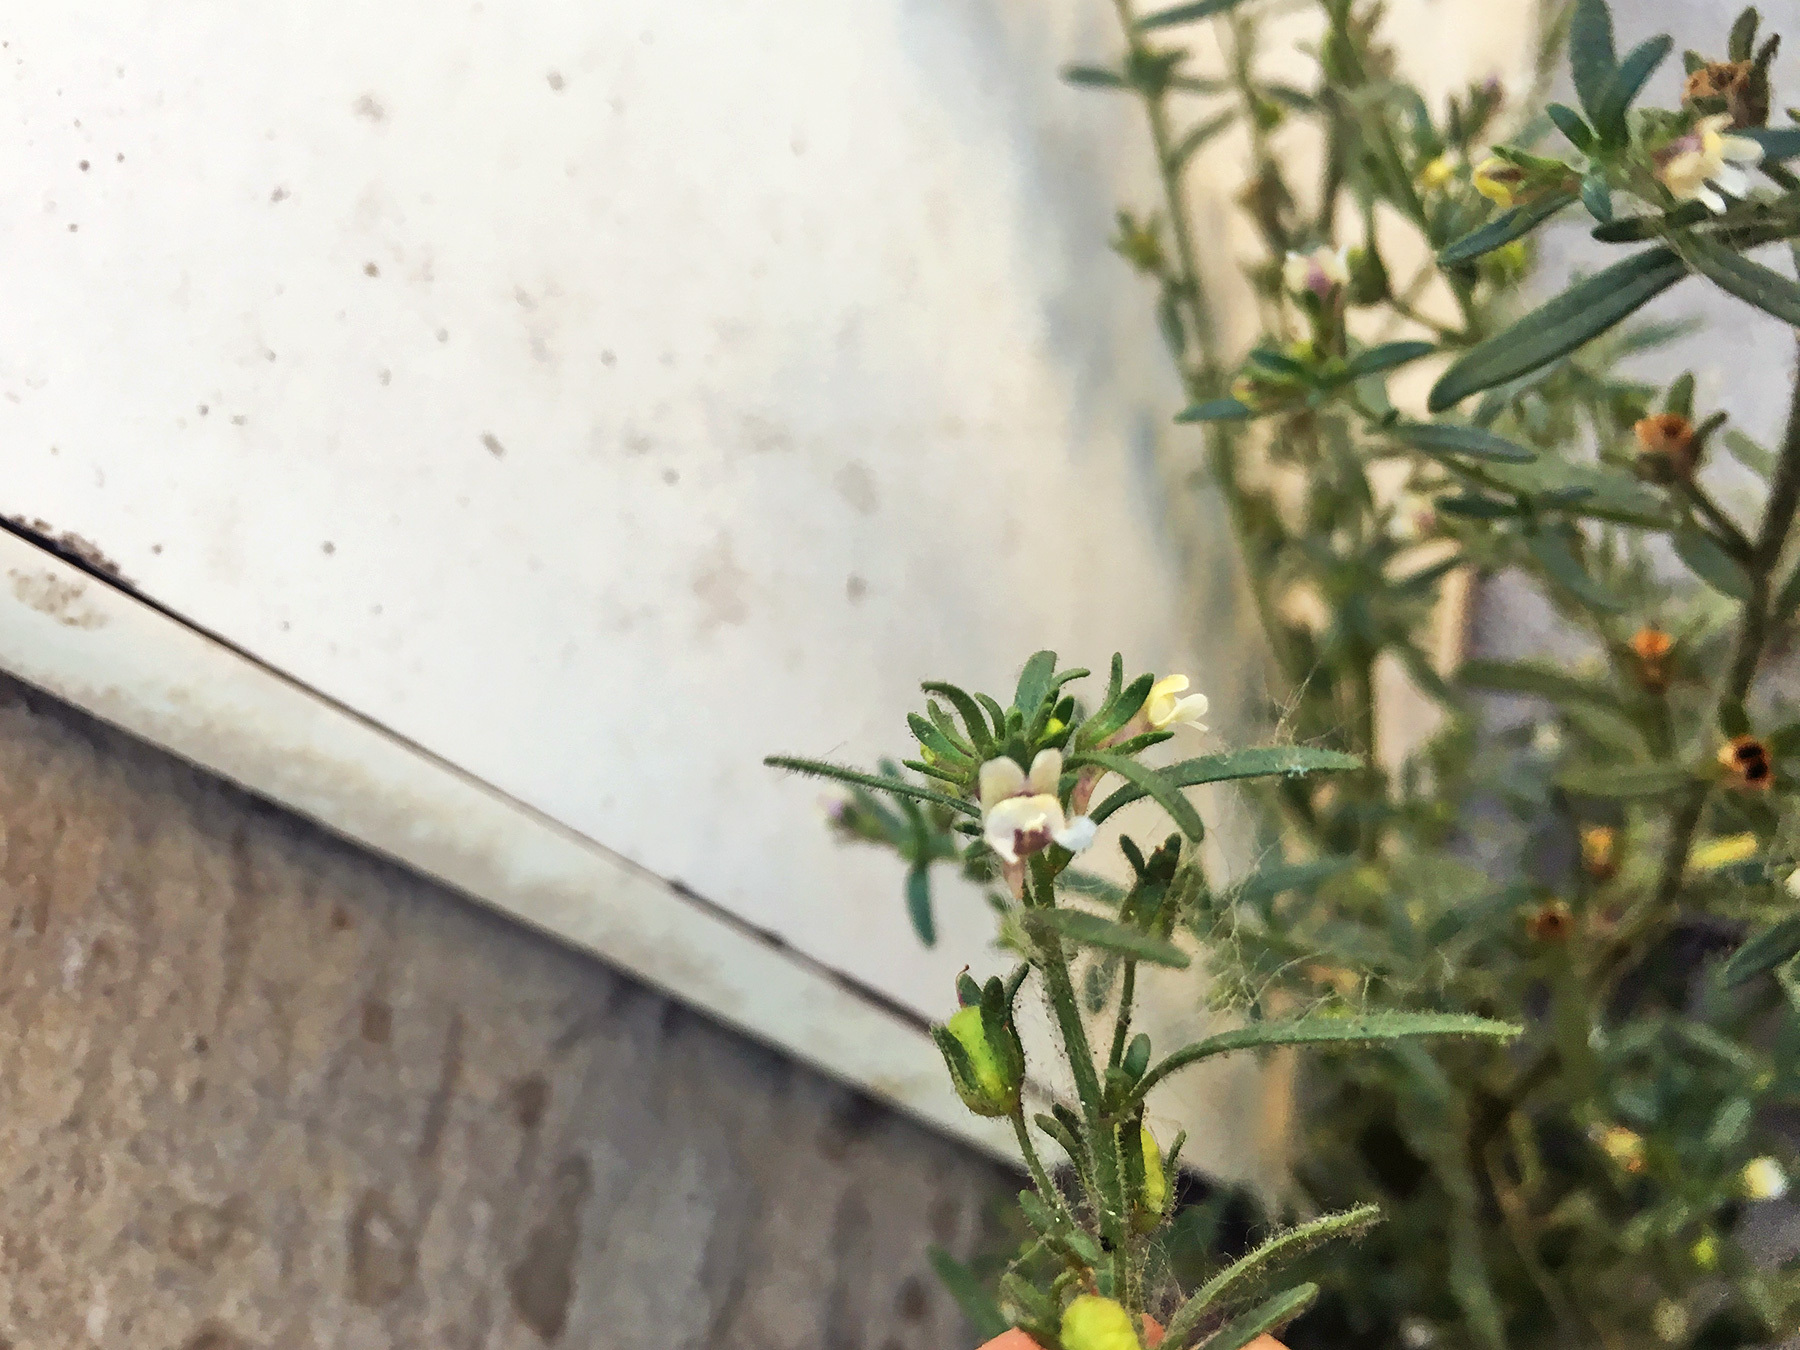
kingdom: Plantae
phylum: Tracheophyta
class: Magnoliopsida
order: Lamiales
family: Plantaginaceae
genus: Chaenorhinum
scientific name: Chaenorhinum minus
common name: Dwarf snapdragon
